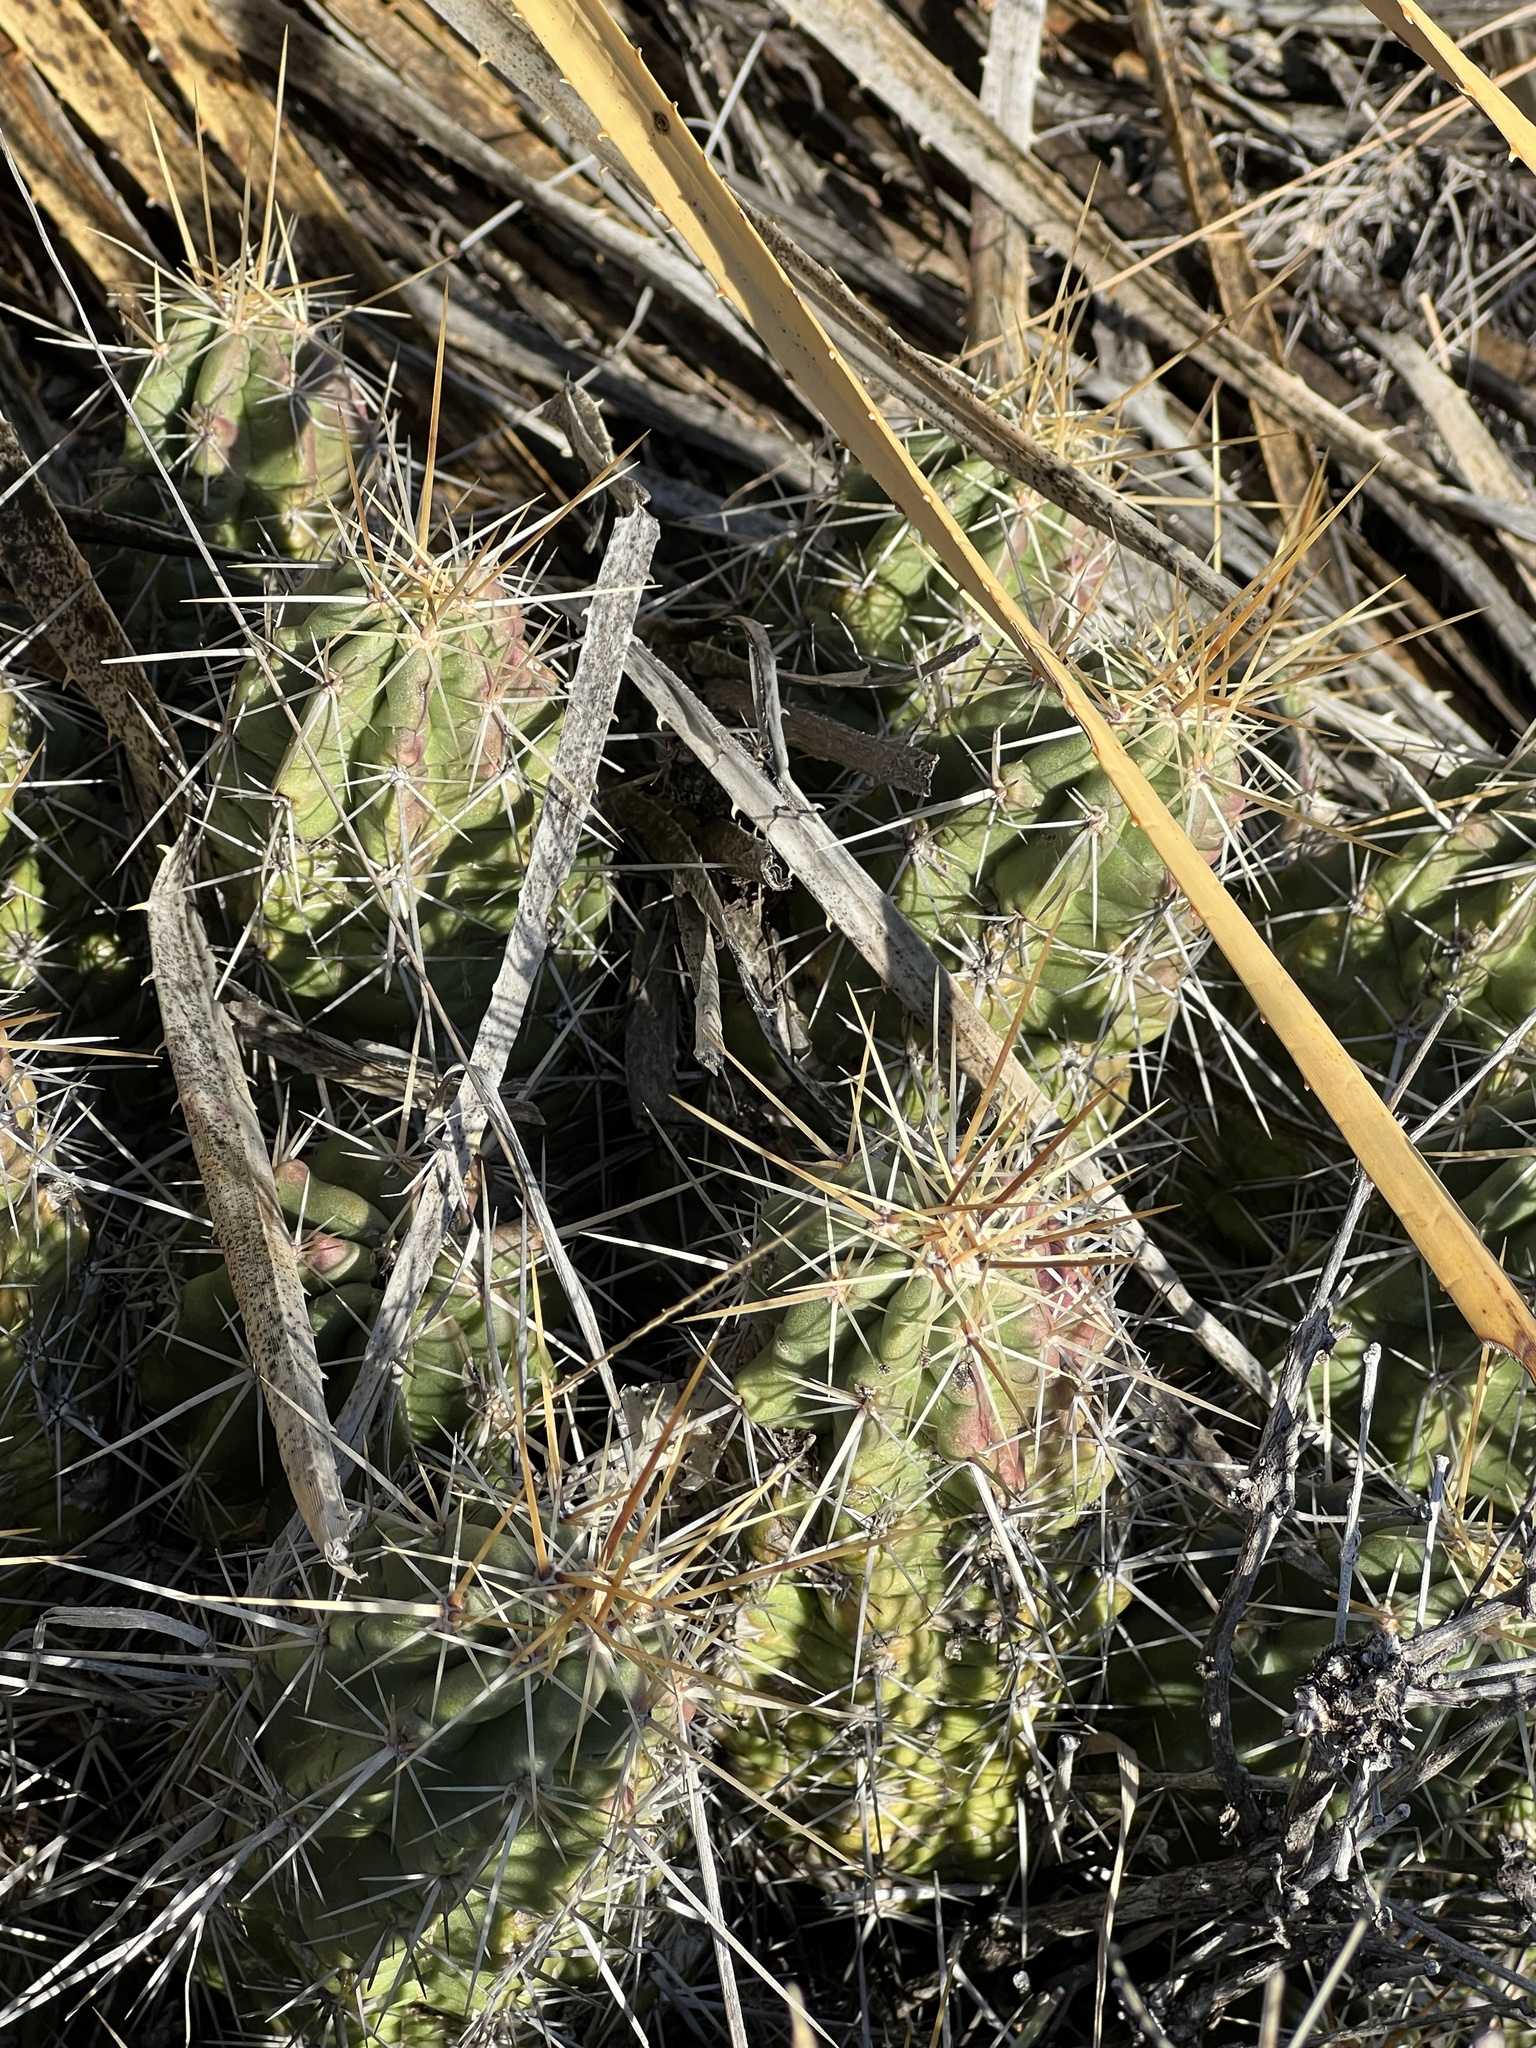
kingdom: Plantae
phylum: Tracheophyta
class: Magnoliopsida
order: Caryophyllales
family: Cactaceae
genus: Echinocereus
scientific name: Echinocereus enneacanthus
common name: Pitaya
